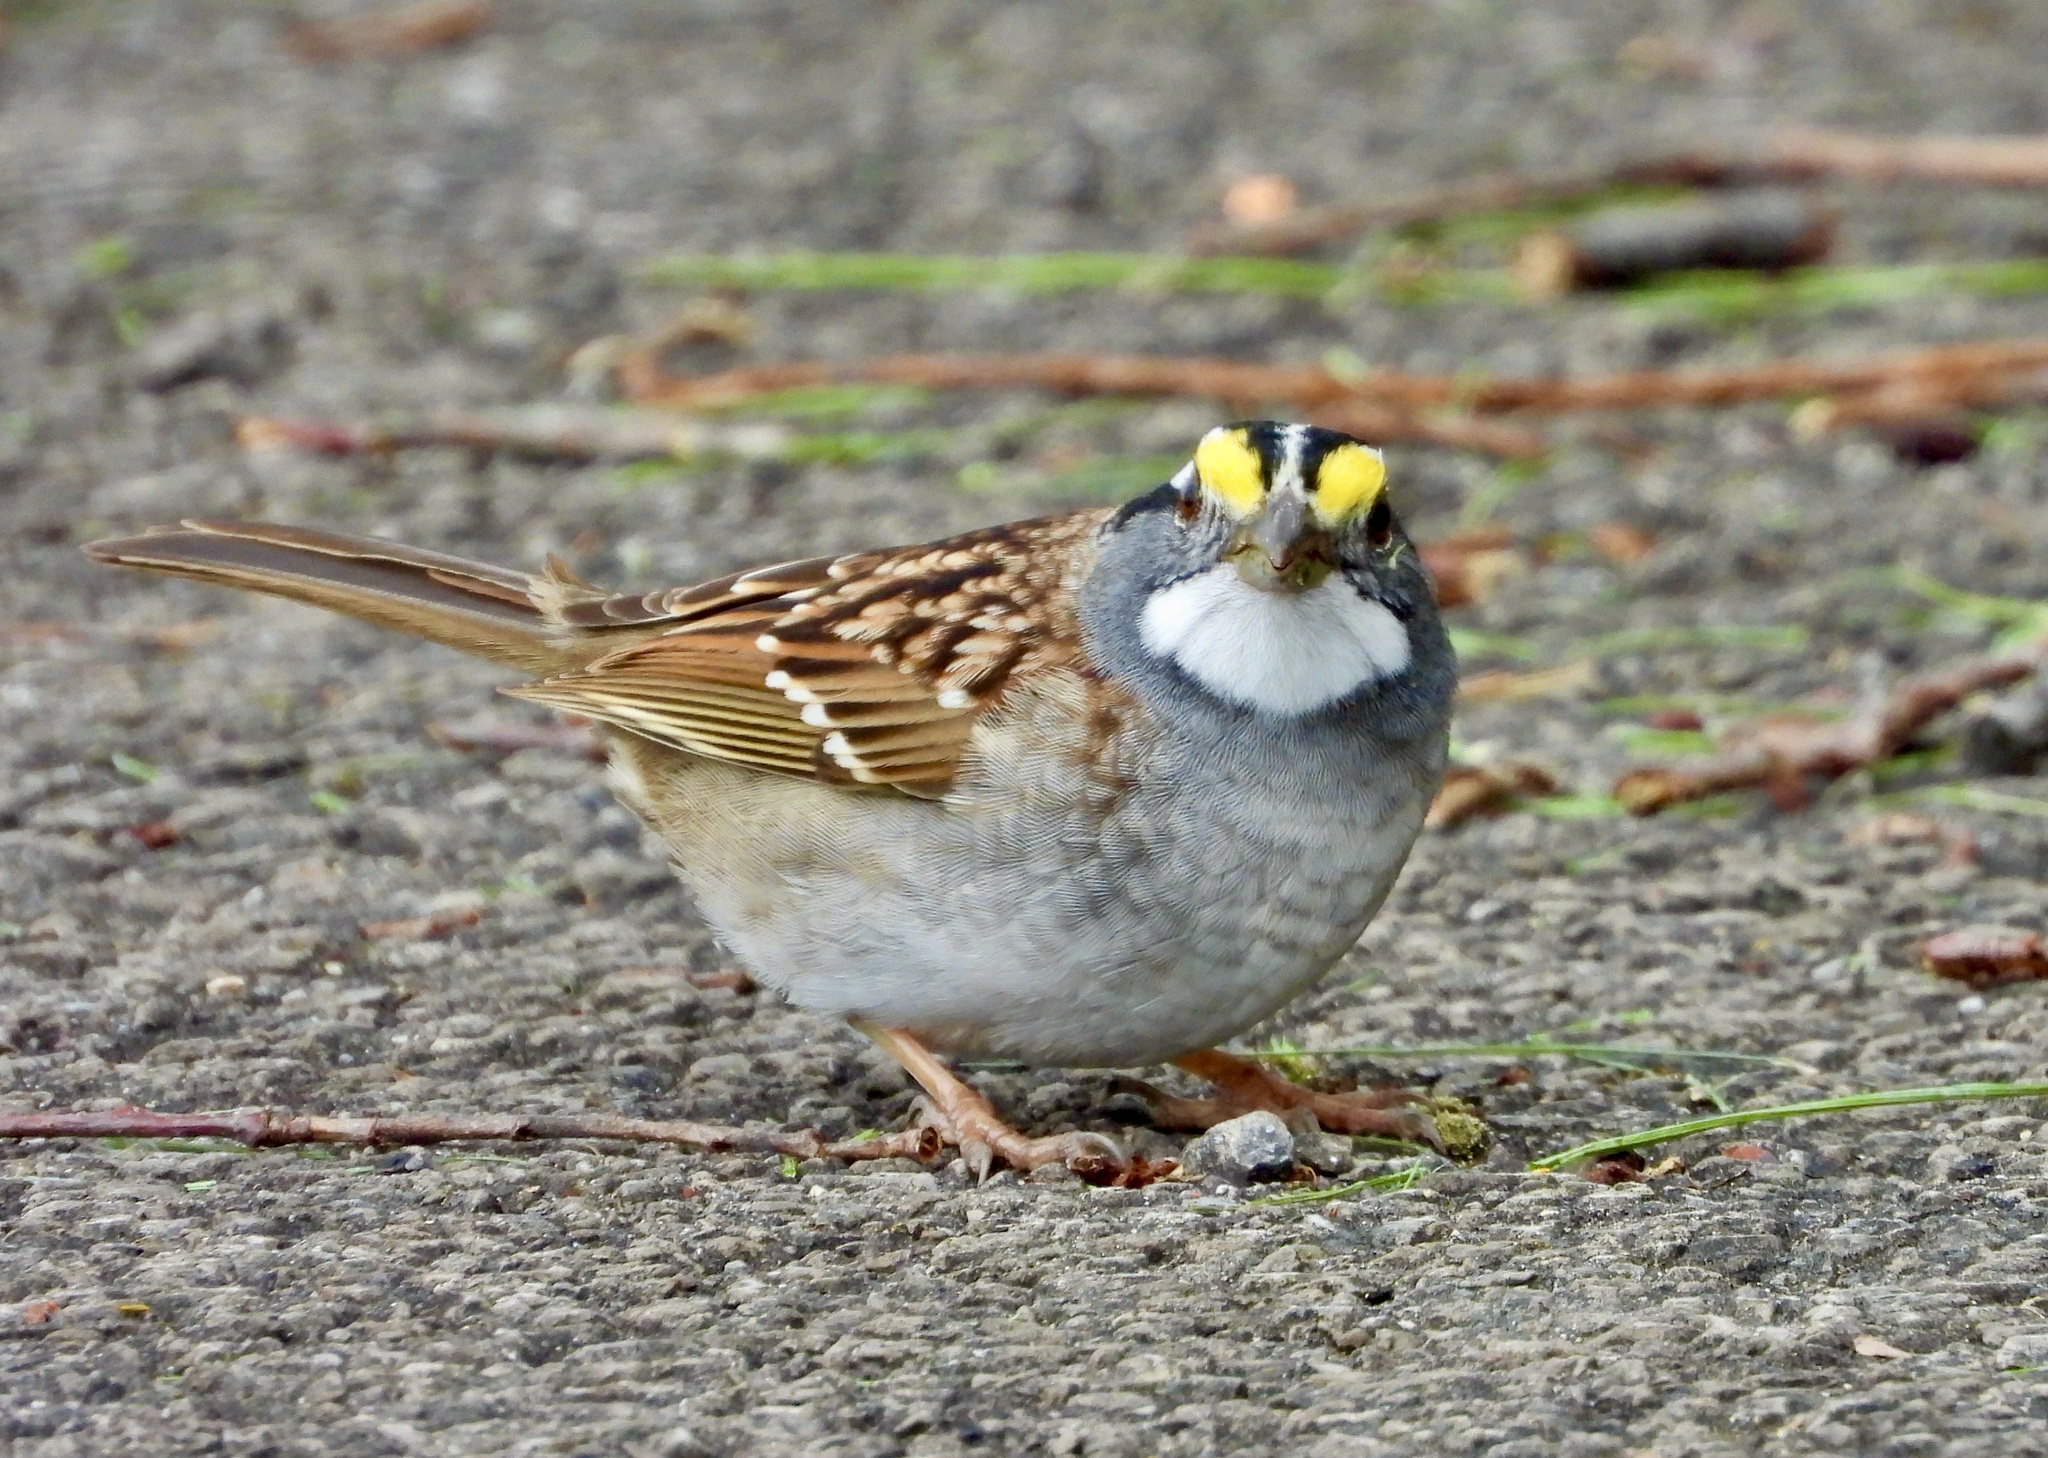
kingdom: Animalia
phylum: Chordata
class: Aves
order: Passeriformes
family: Passerellidae
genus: Zonotrichia
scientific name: Zonotrichia albicollis
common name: White-throated sparrow
